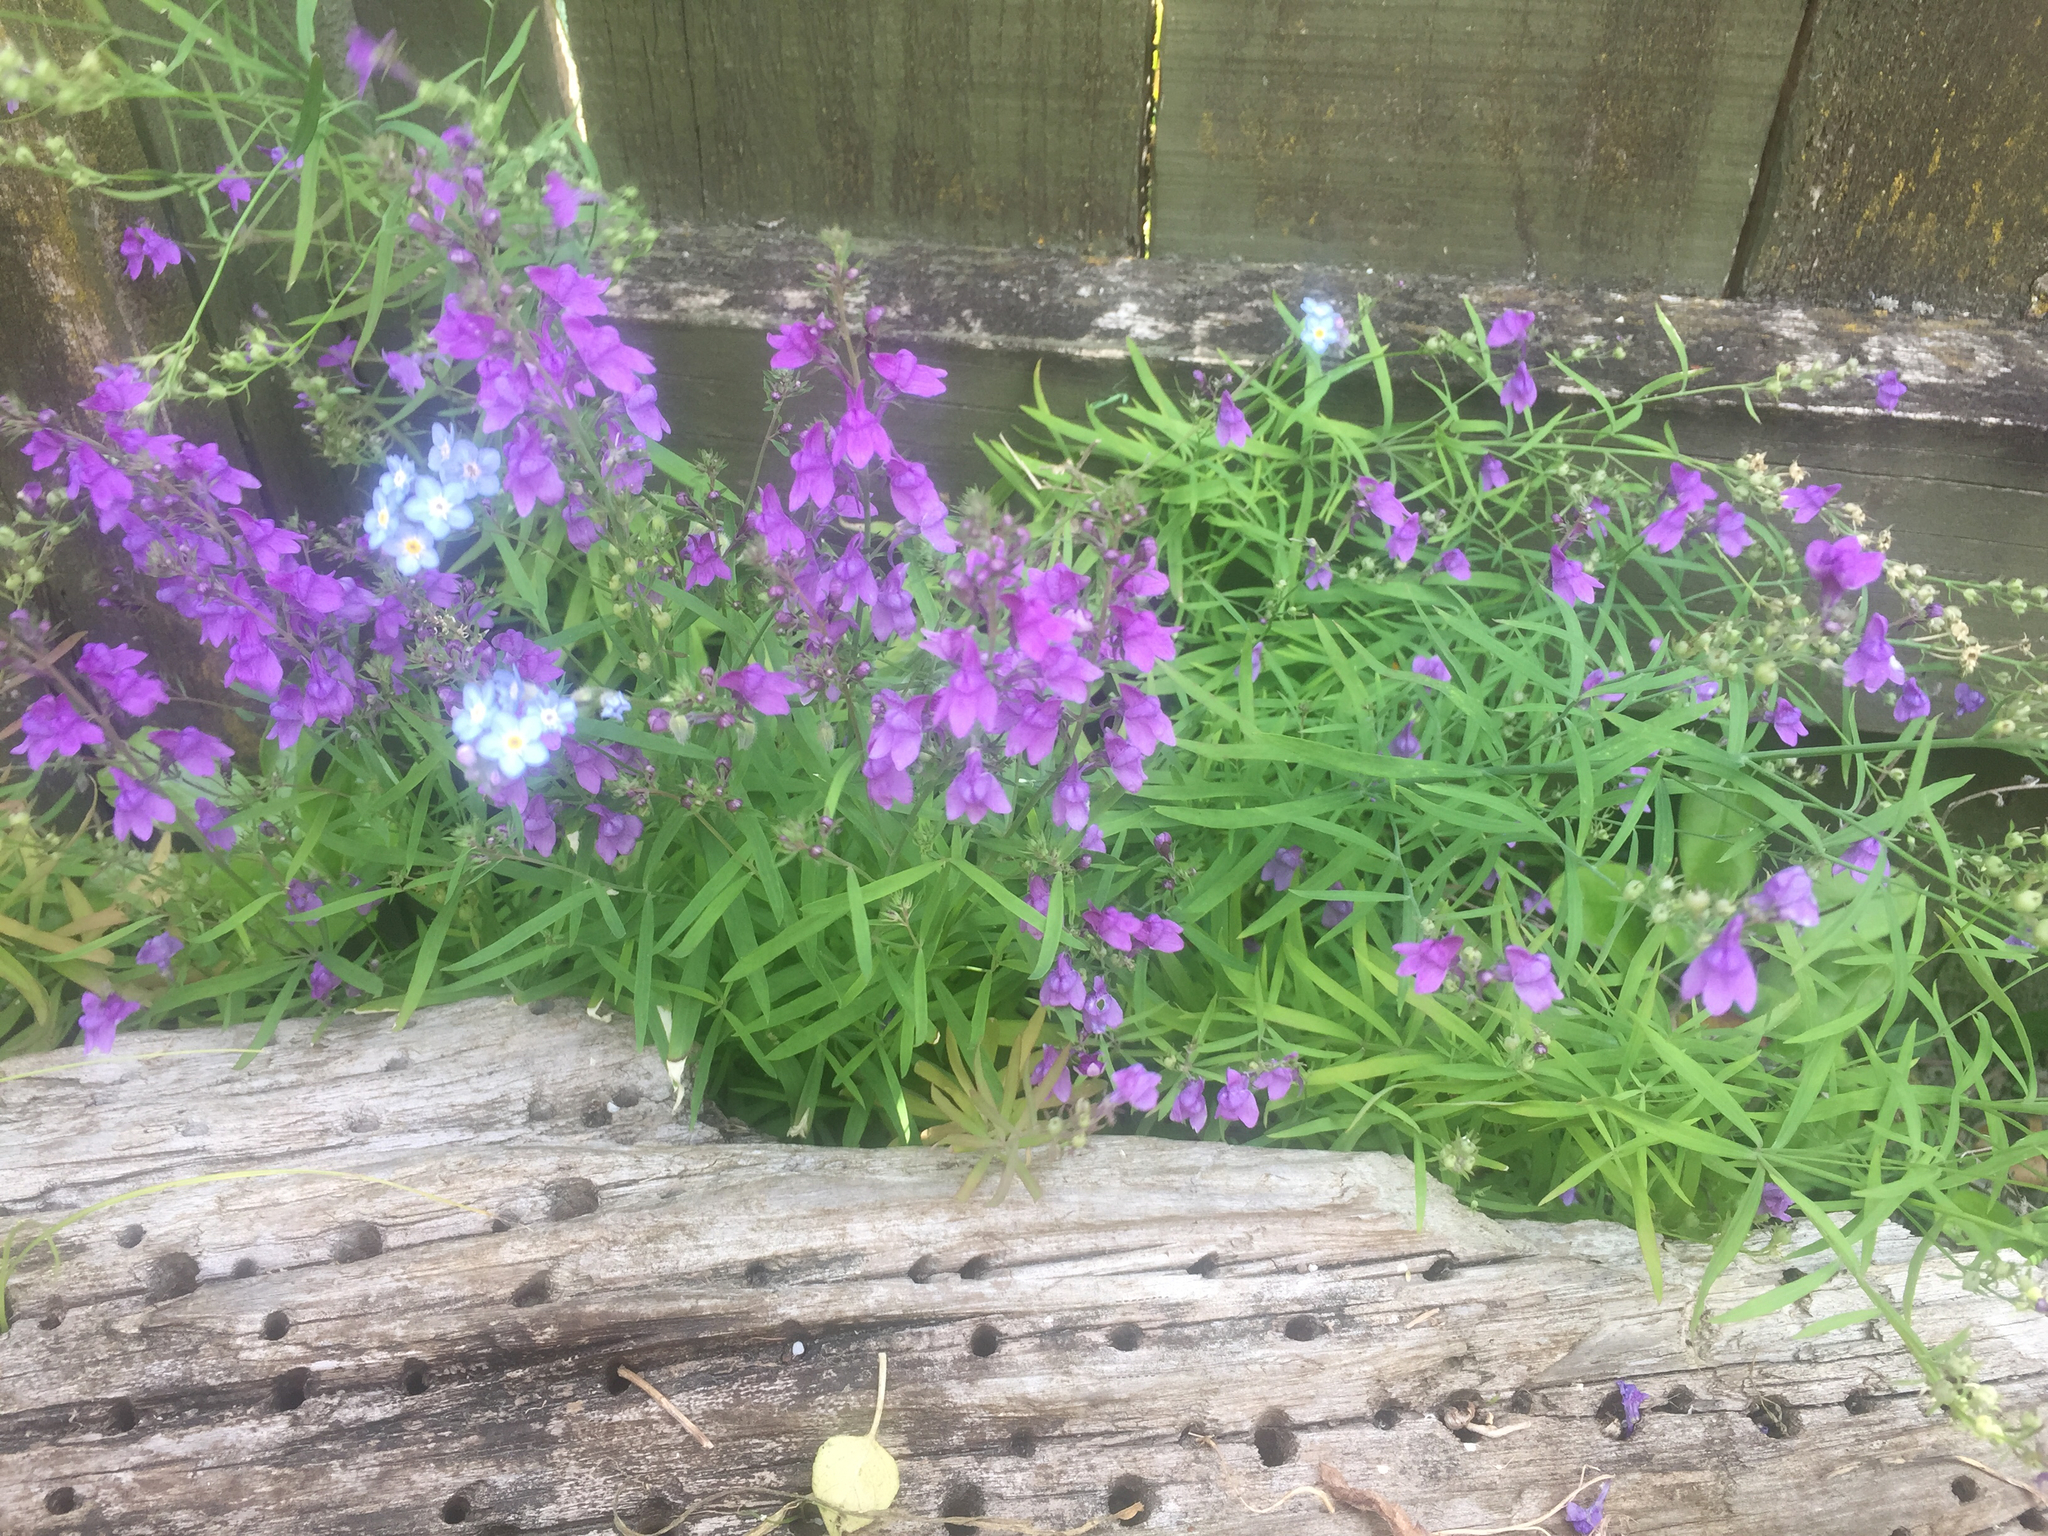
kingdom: Plantae
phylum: Tracheophyta
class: Magnoliopsida
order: Lamiales
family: Plantaginaceae
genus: Linaria
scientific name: Linaria purpurea
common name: Purple toadflax
